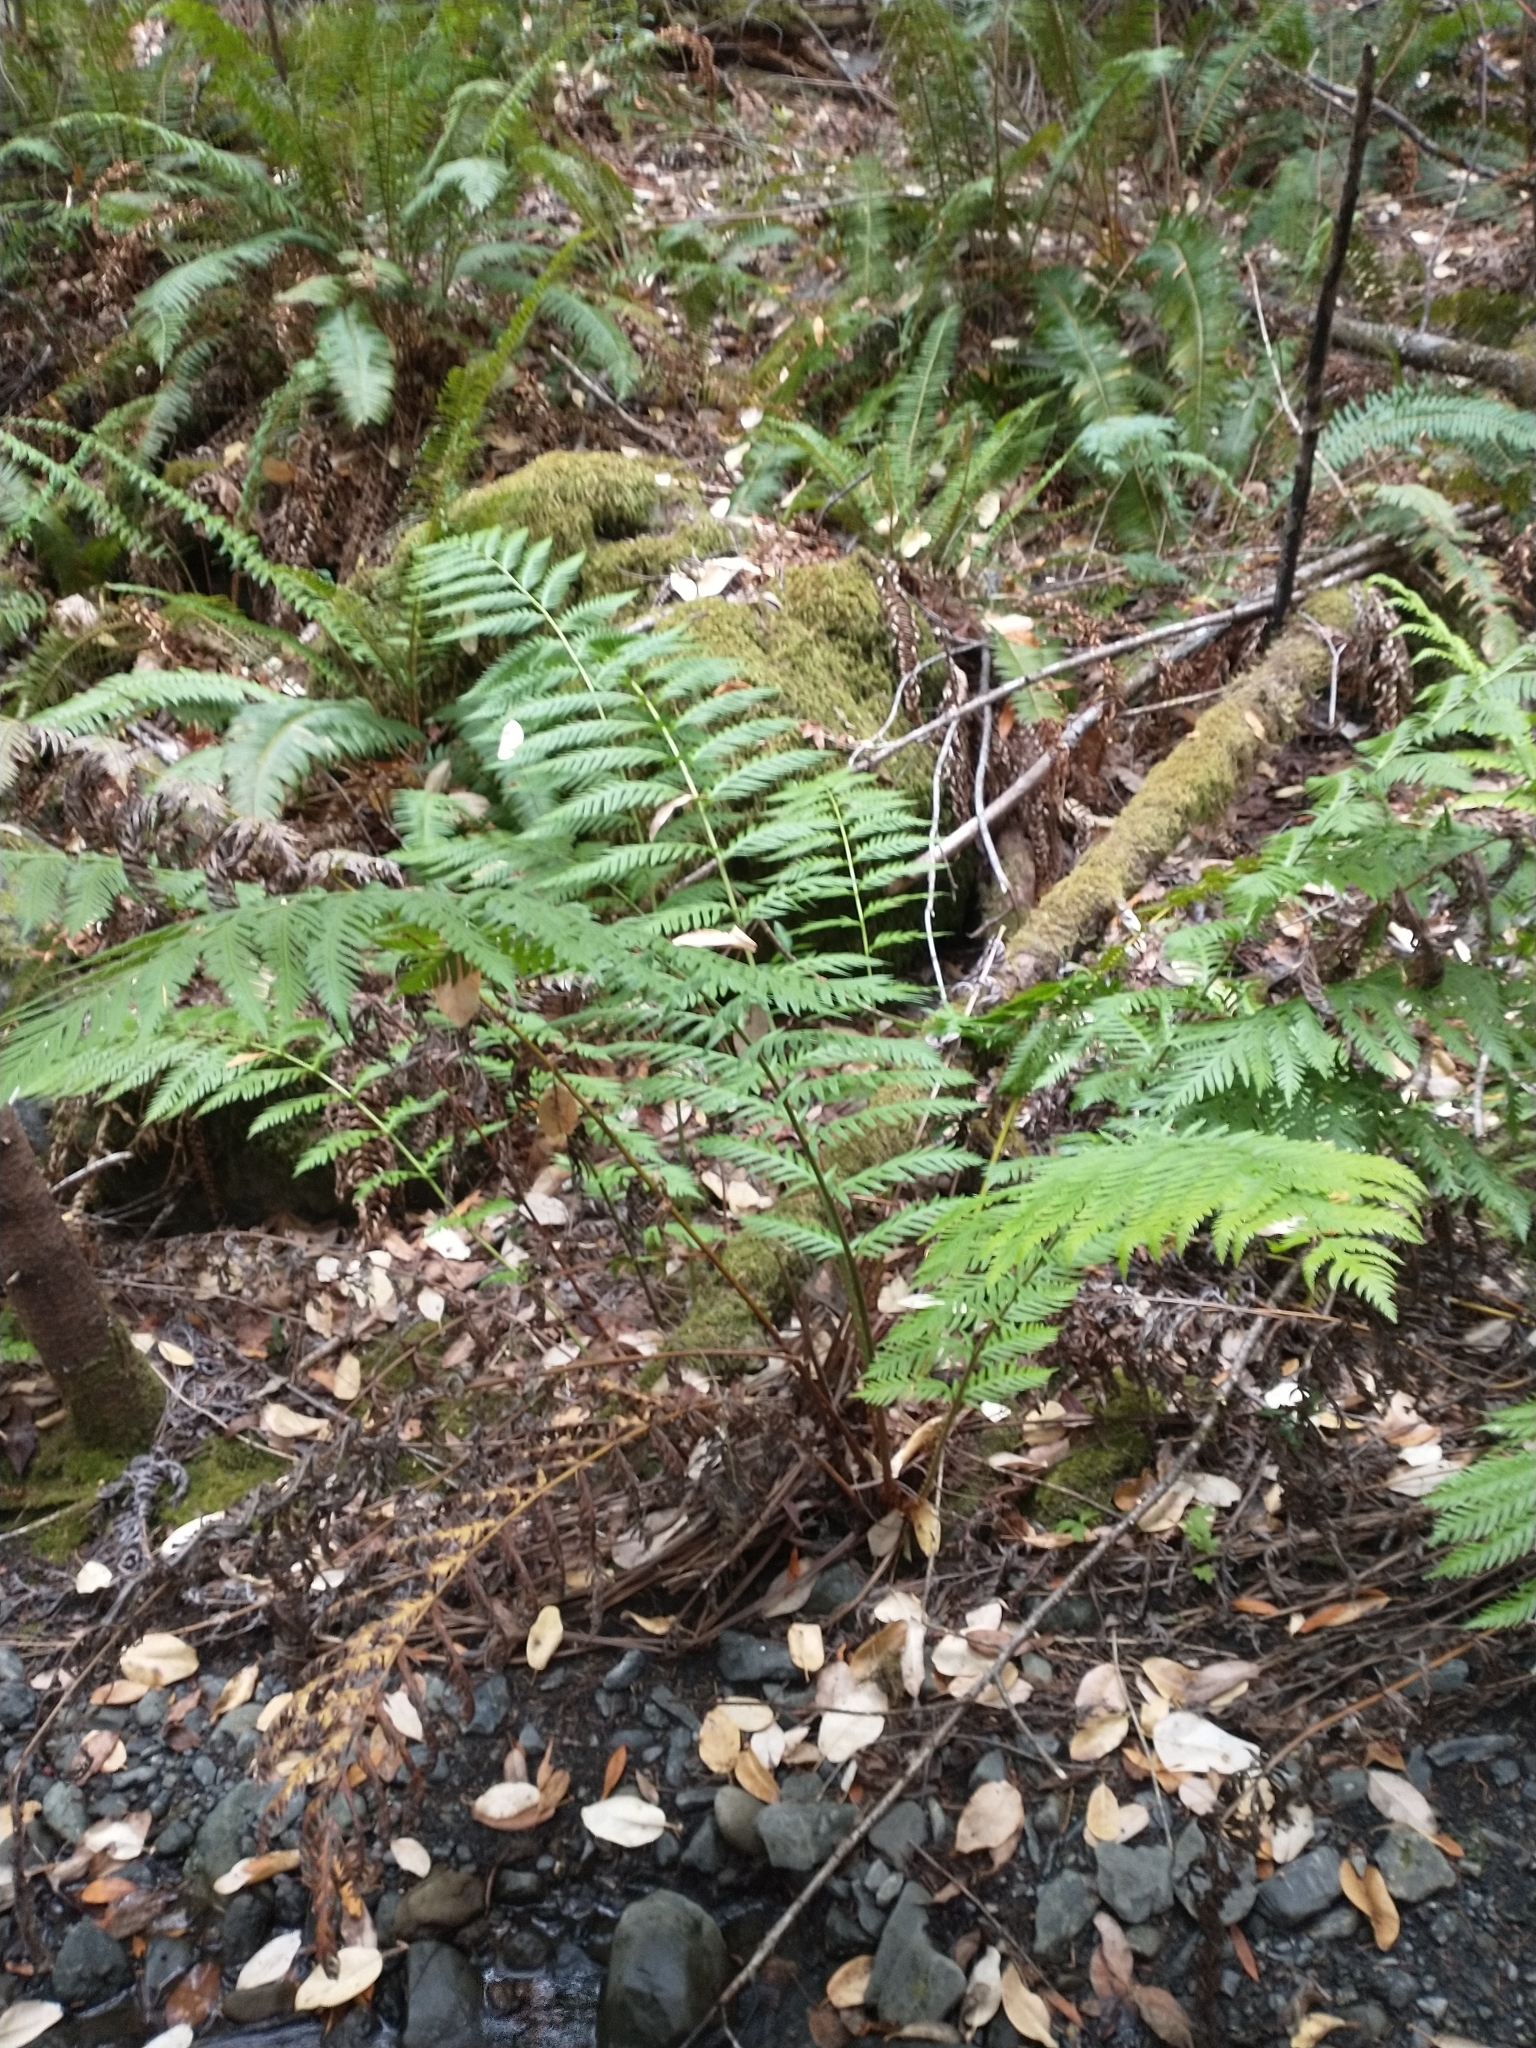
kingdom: Plantae
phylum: Tracheophyta
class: Polypodiopsida
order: Polypodiales
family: Blechnaceae
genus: Woodwardia
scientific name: Woodwardia fimbriata
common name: Giant chain fern
